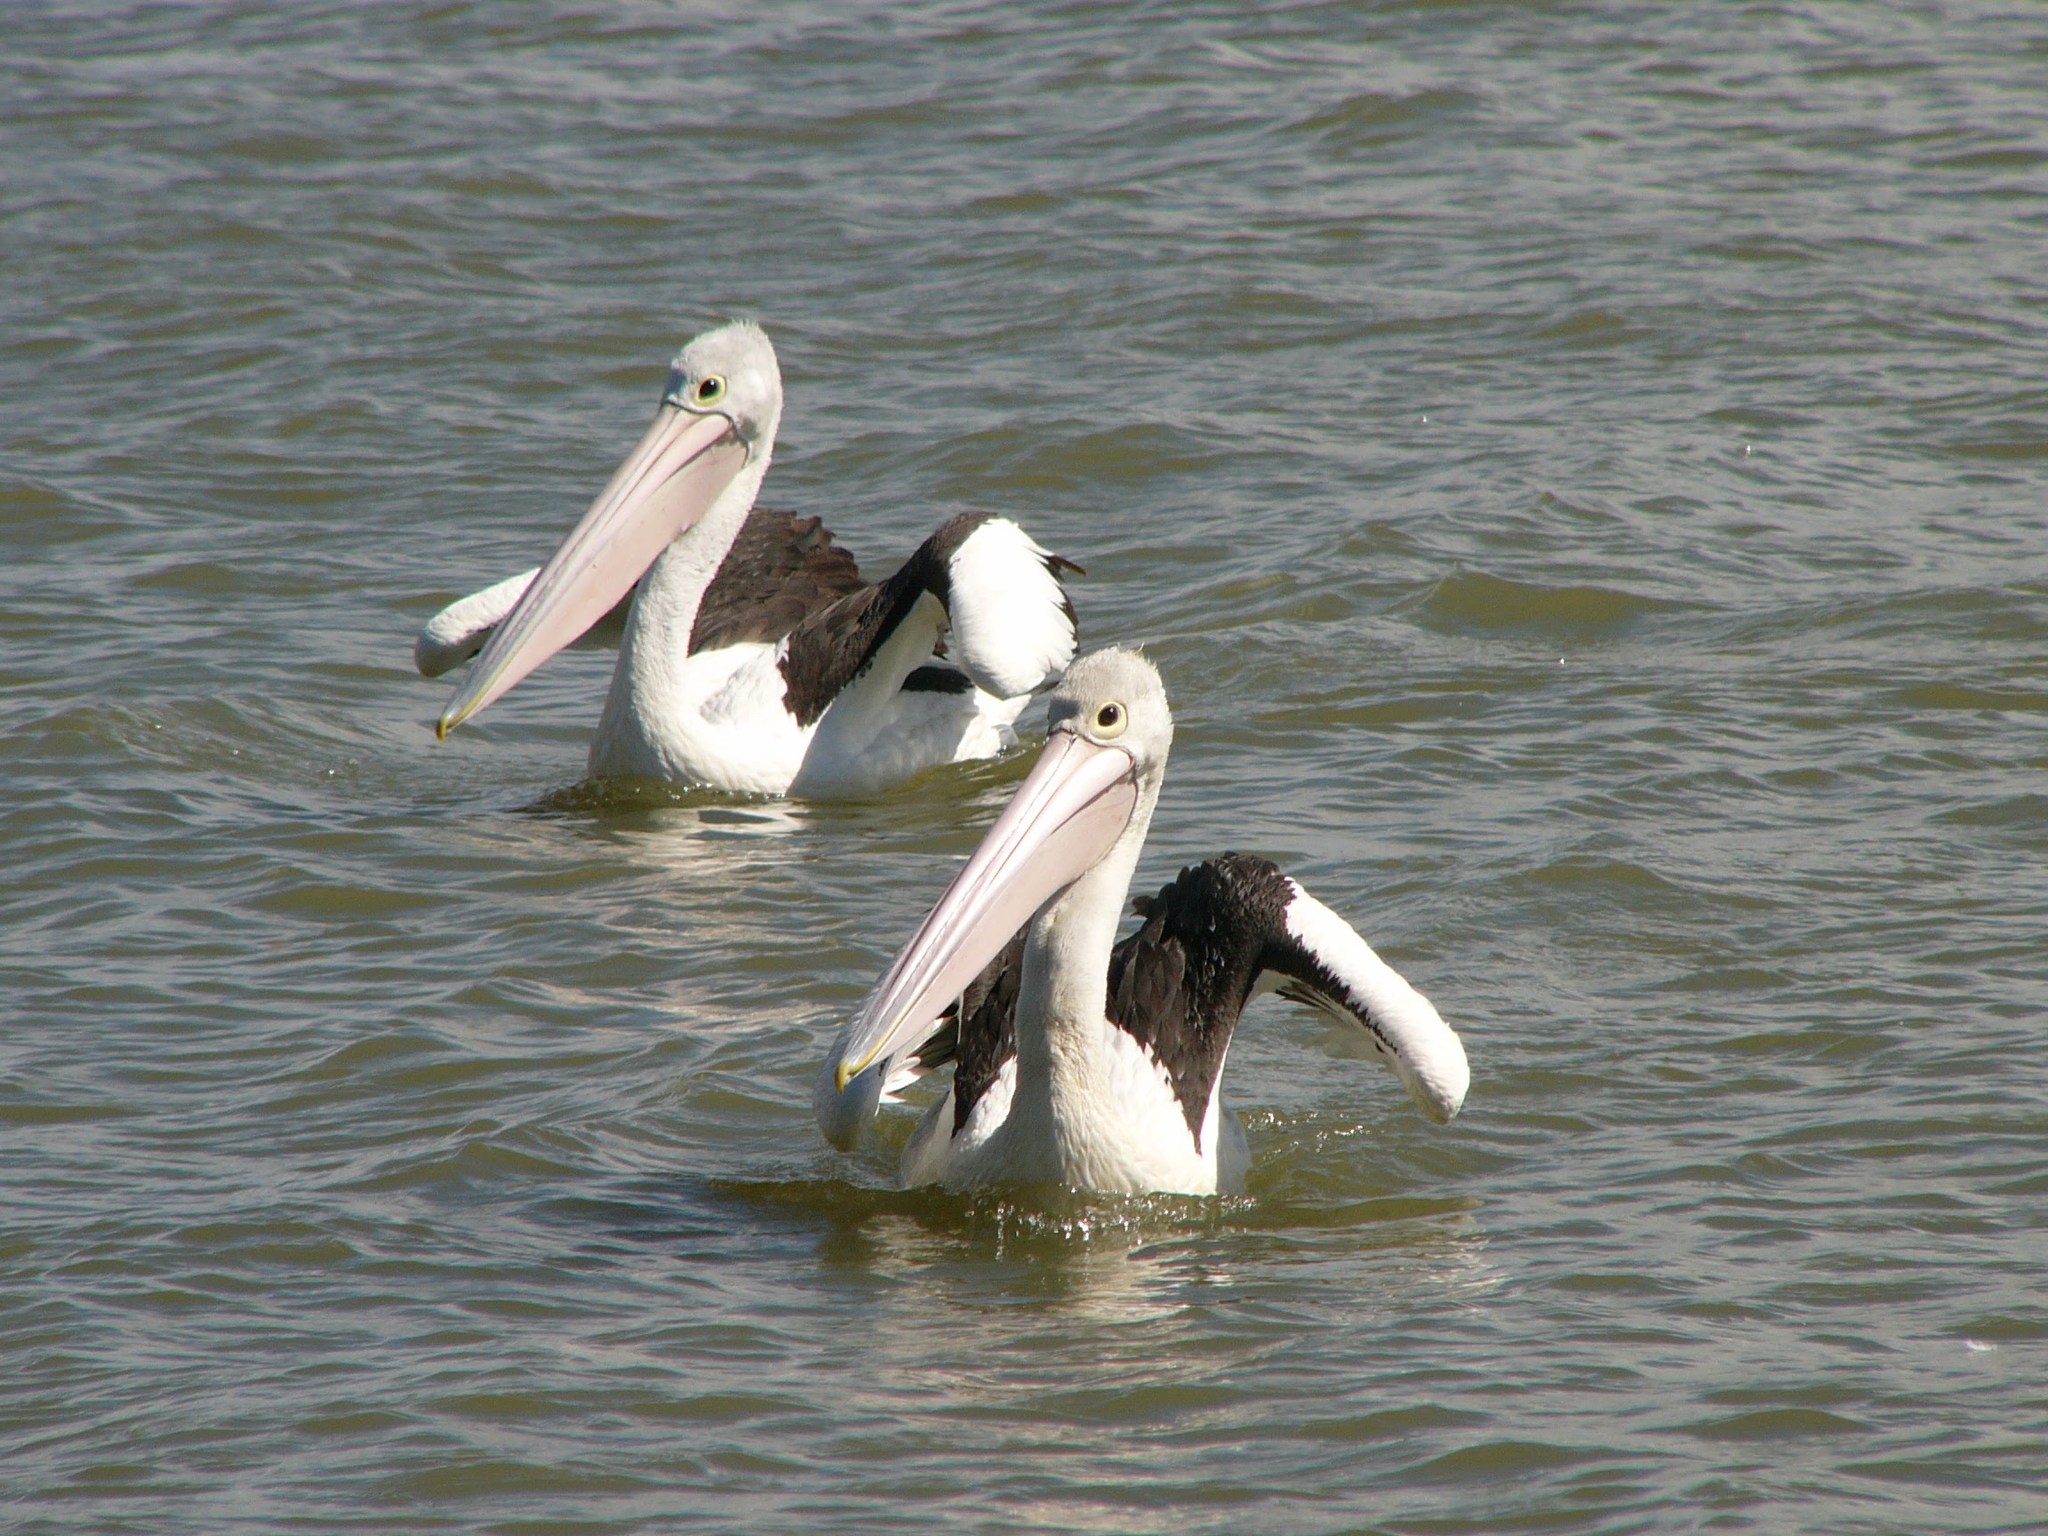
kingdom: Animalia
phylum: Chordata
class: Aves
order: Pelecaniformes
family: Pelecanidae
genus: Pelecanus
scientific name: Pelecanus conspicillatus
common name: Australian pelican
